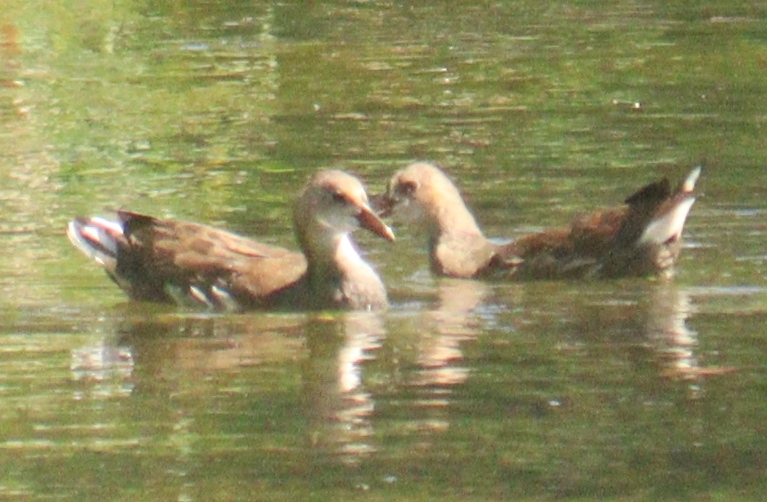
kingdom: Animalia
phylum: Chordata
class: Aves
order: Gruiformes
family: Rallidae
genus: Gallinula
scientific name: Gallinula chloropus
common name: Common moorhen
